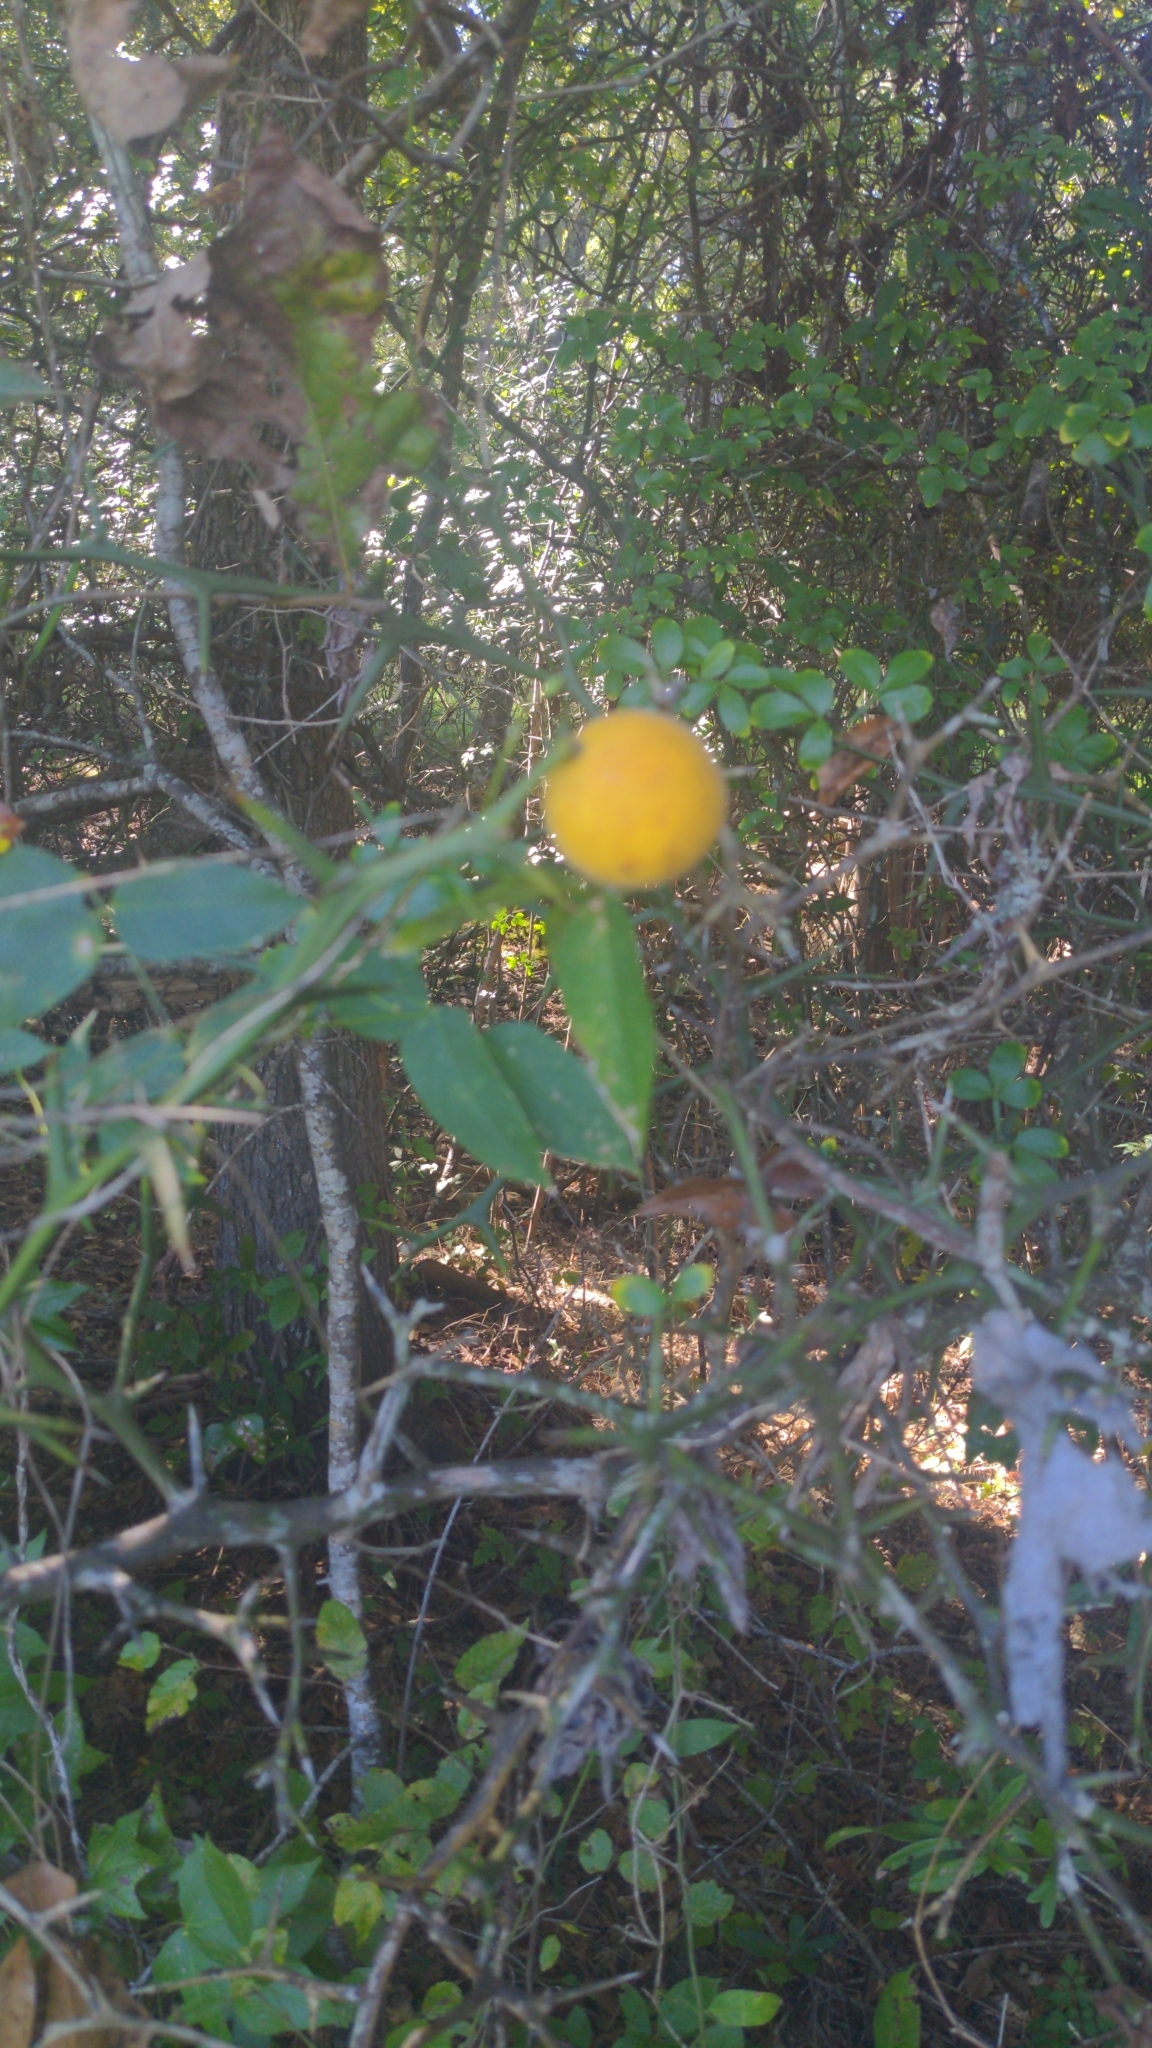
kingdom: Plantae
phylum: Tracheophyta
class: Magnoliopsida
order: Sapindales
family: Rutaceae
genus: Citrus
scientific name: Citrus trifoliata
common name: Japanese bitter-orange
